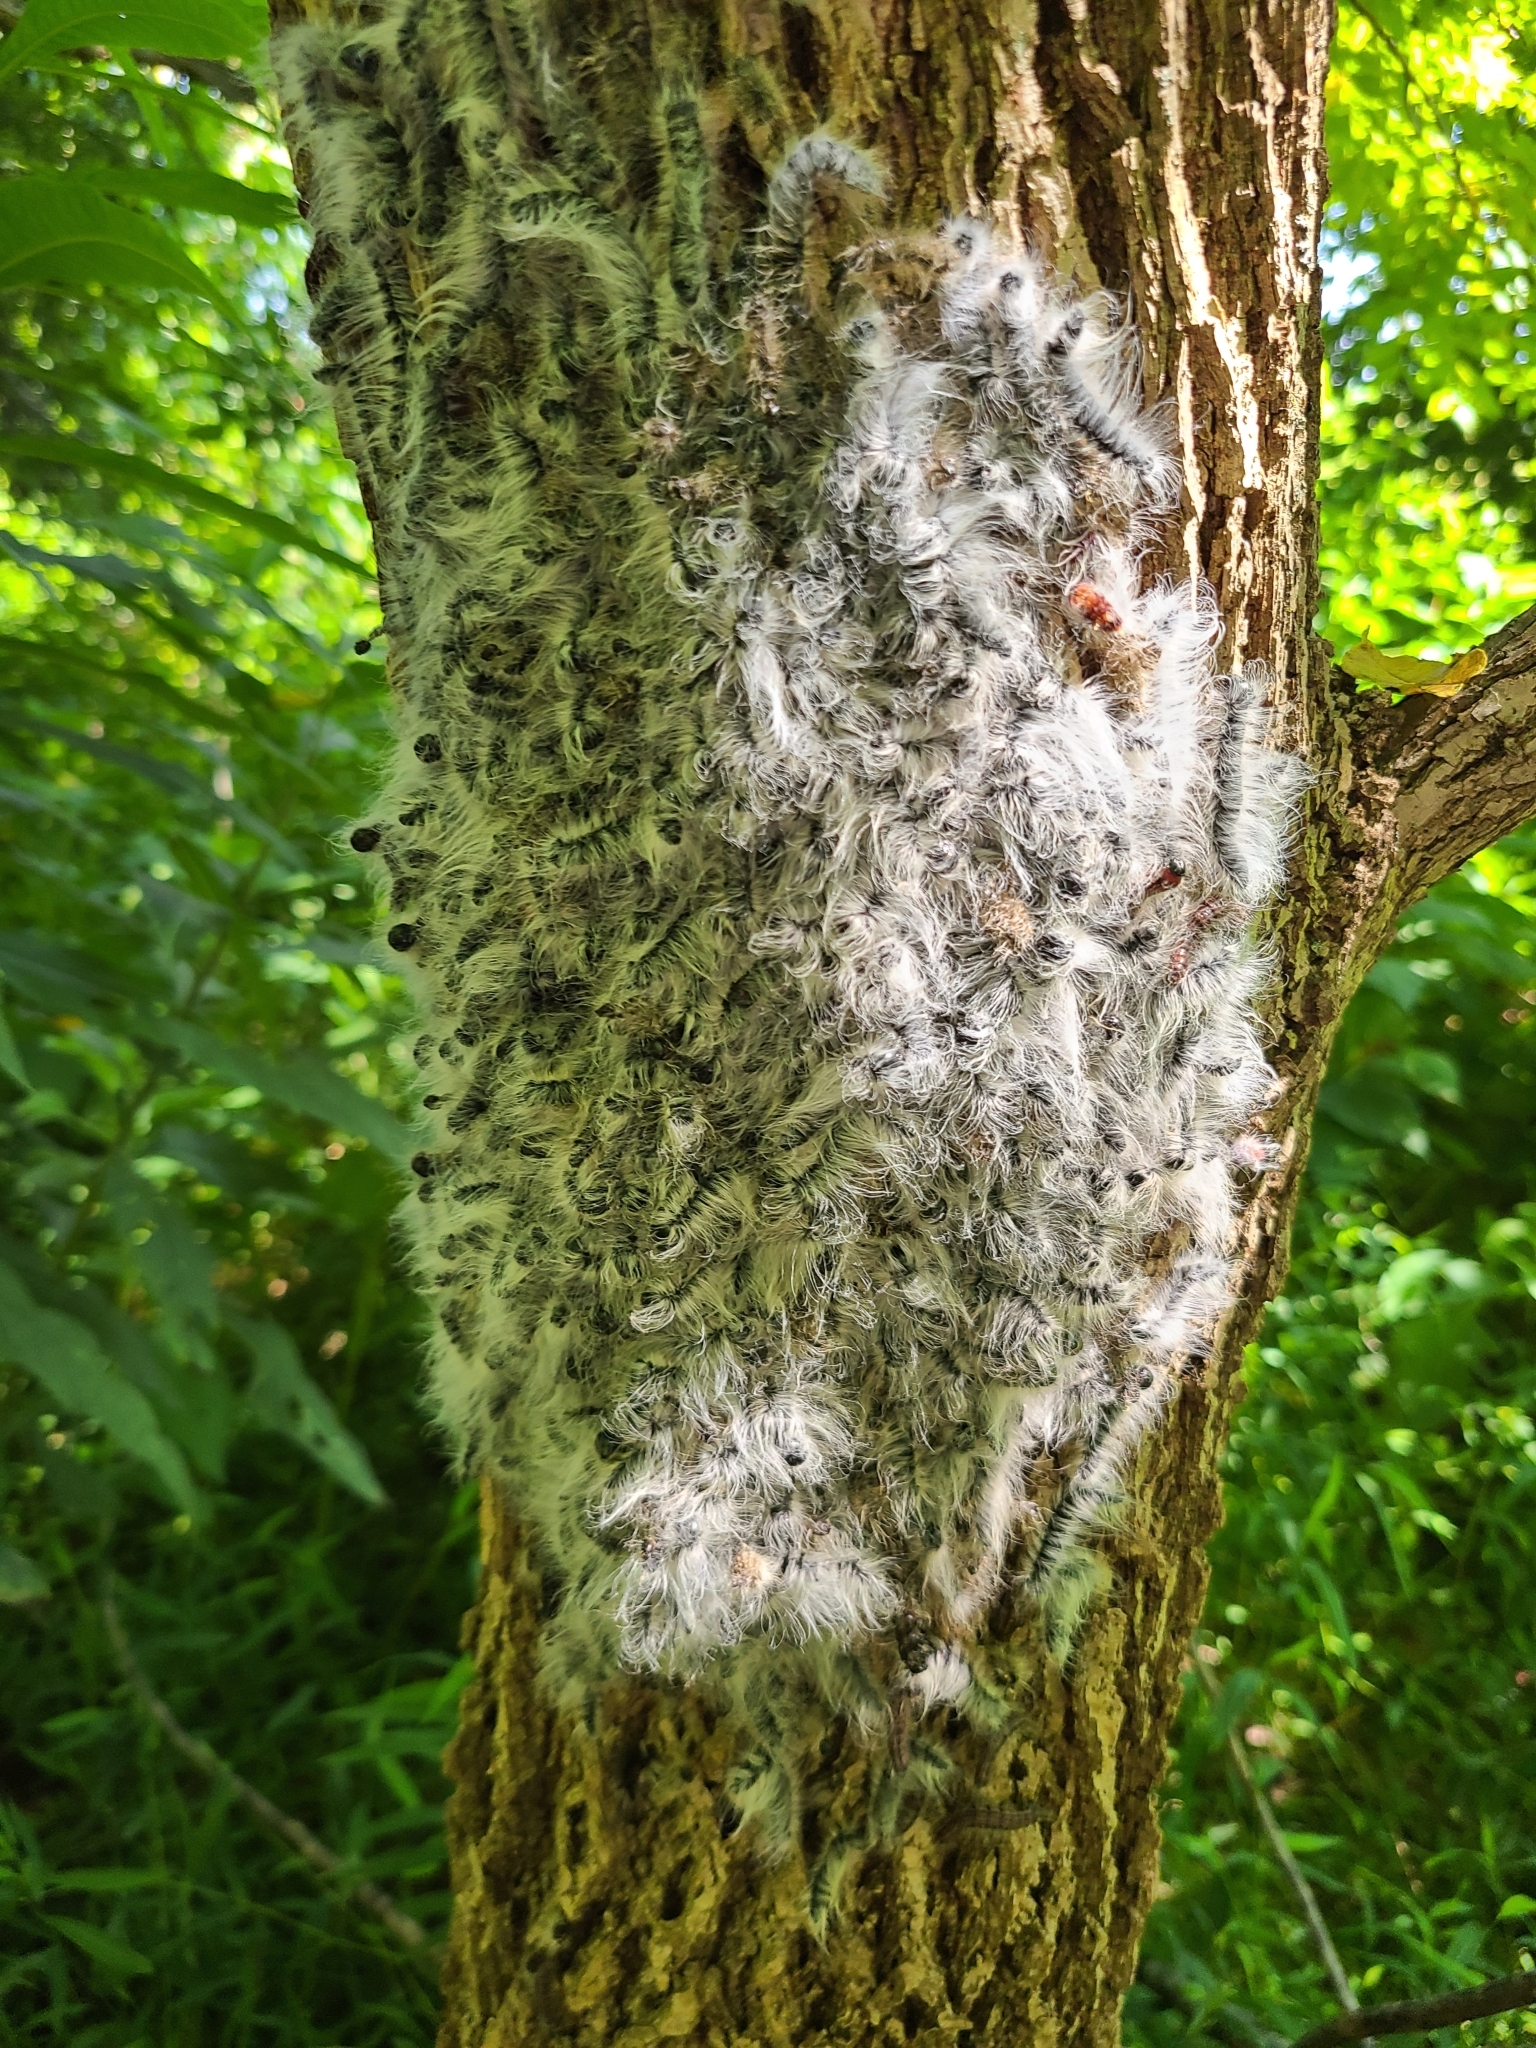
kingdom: Animalia
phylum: Arthropoda
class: Insecta
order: Lepidoptera
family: Notodontidae
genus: Datana
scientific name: Datana integerrima
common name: Walnut caterpillar
